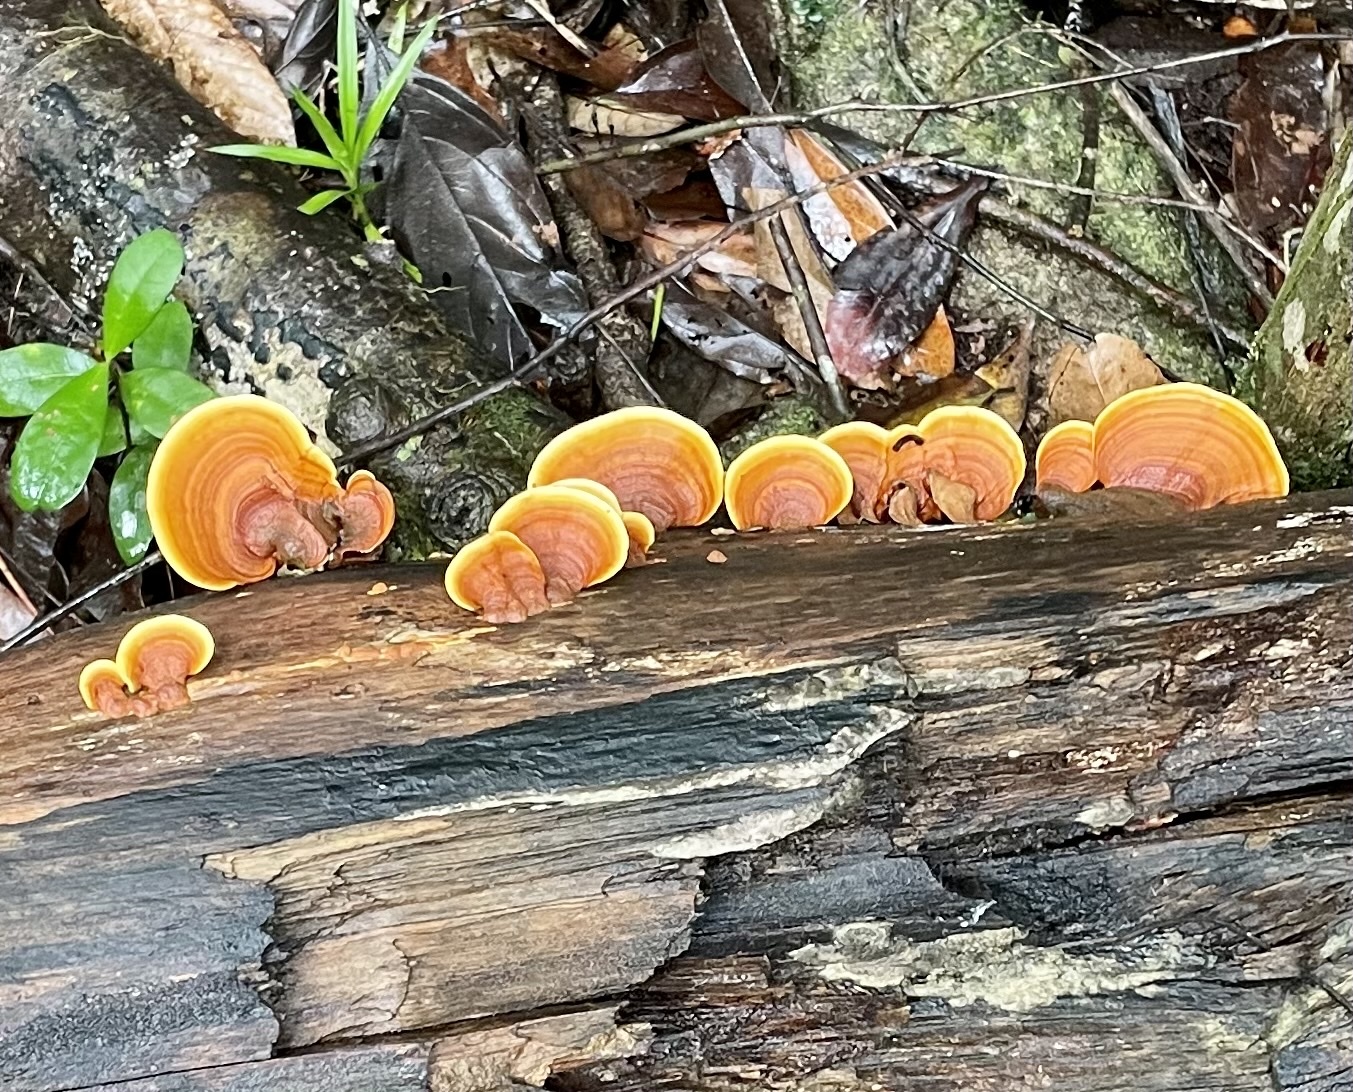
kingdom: Fungi
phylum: Basidiomycota
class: Agaricomycetes
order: Russulales
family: Stereaceae
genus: Stereum
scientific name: Stereum versicolor
